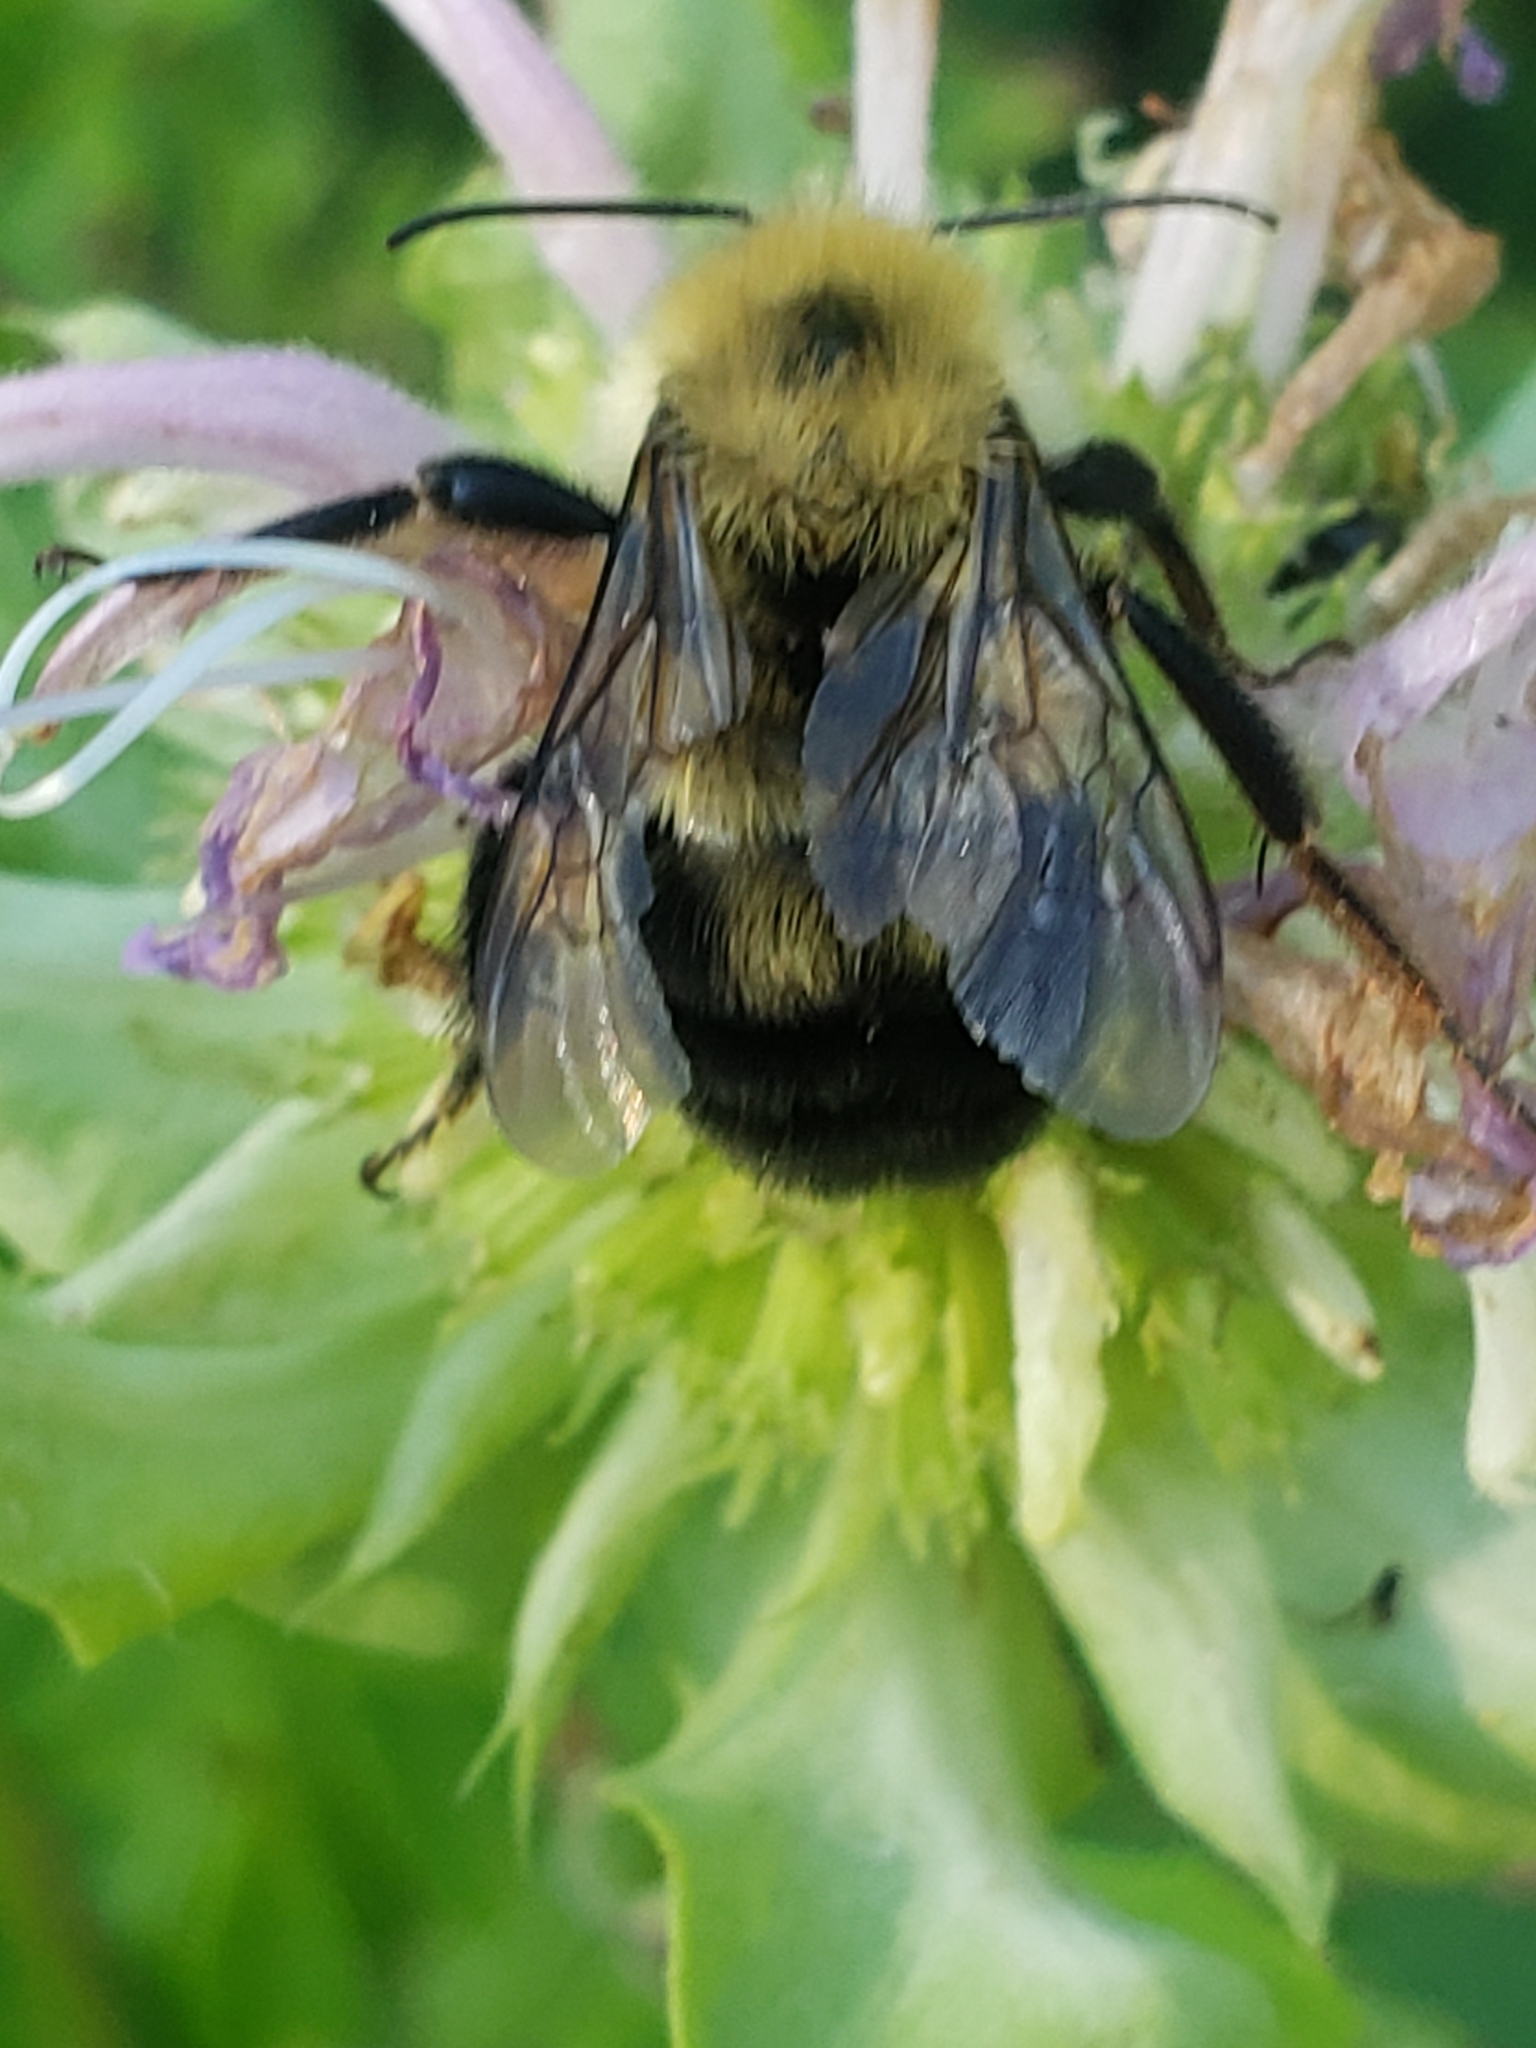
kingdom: Animalia
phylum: Arthropoda
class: Insecta
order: Hymenoptera
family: Apidae
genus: Bombus
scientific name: Bombus bimaculatus
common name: Two-spotted bumble bee
